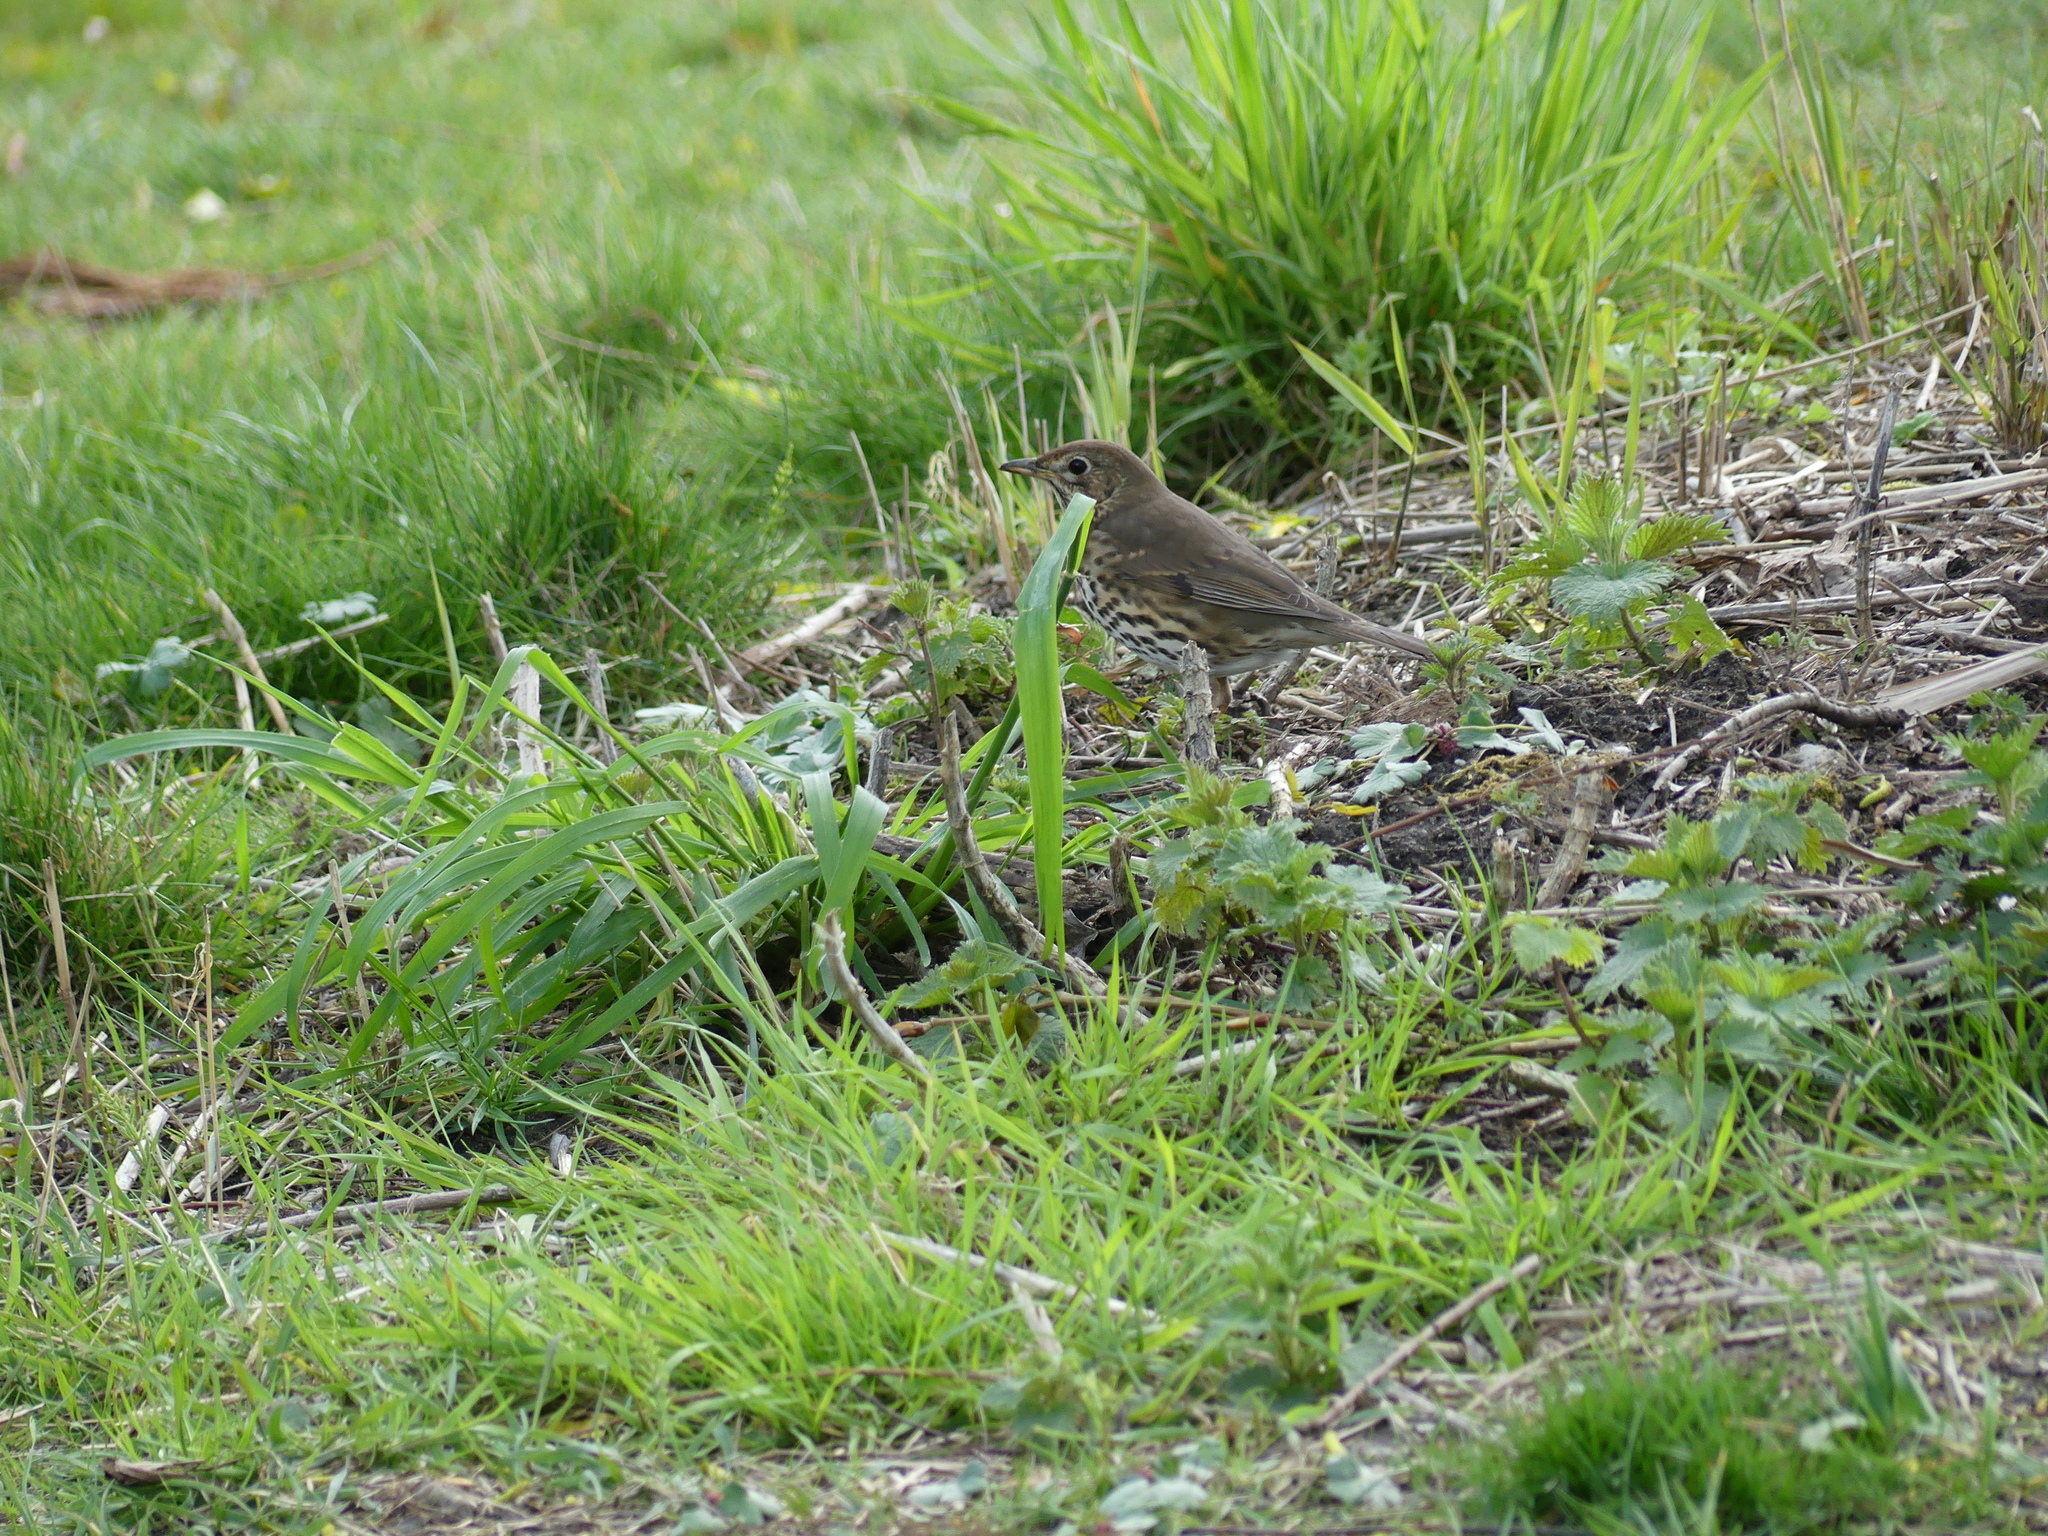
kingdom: Animalia
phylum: Chordata
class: Aves
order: Passeriformes
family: Turdidae
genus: Turdus
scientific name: Turdus philomelos
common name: Song thrush
